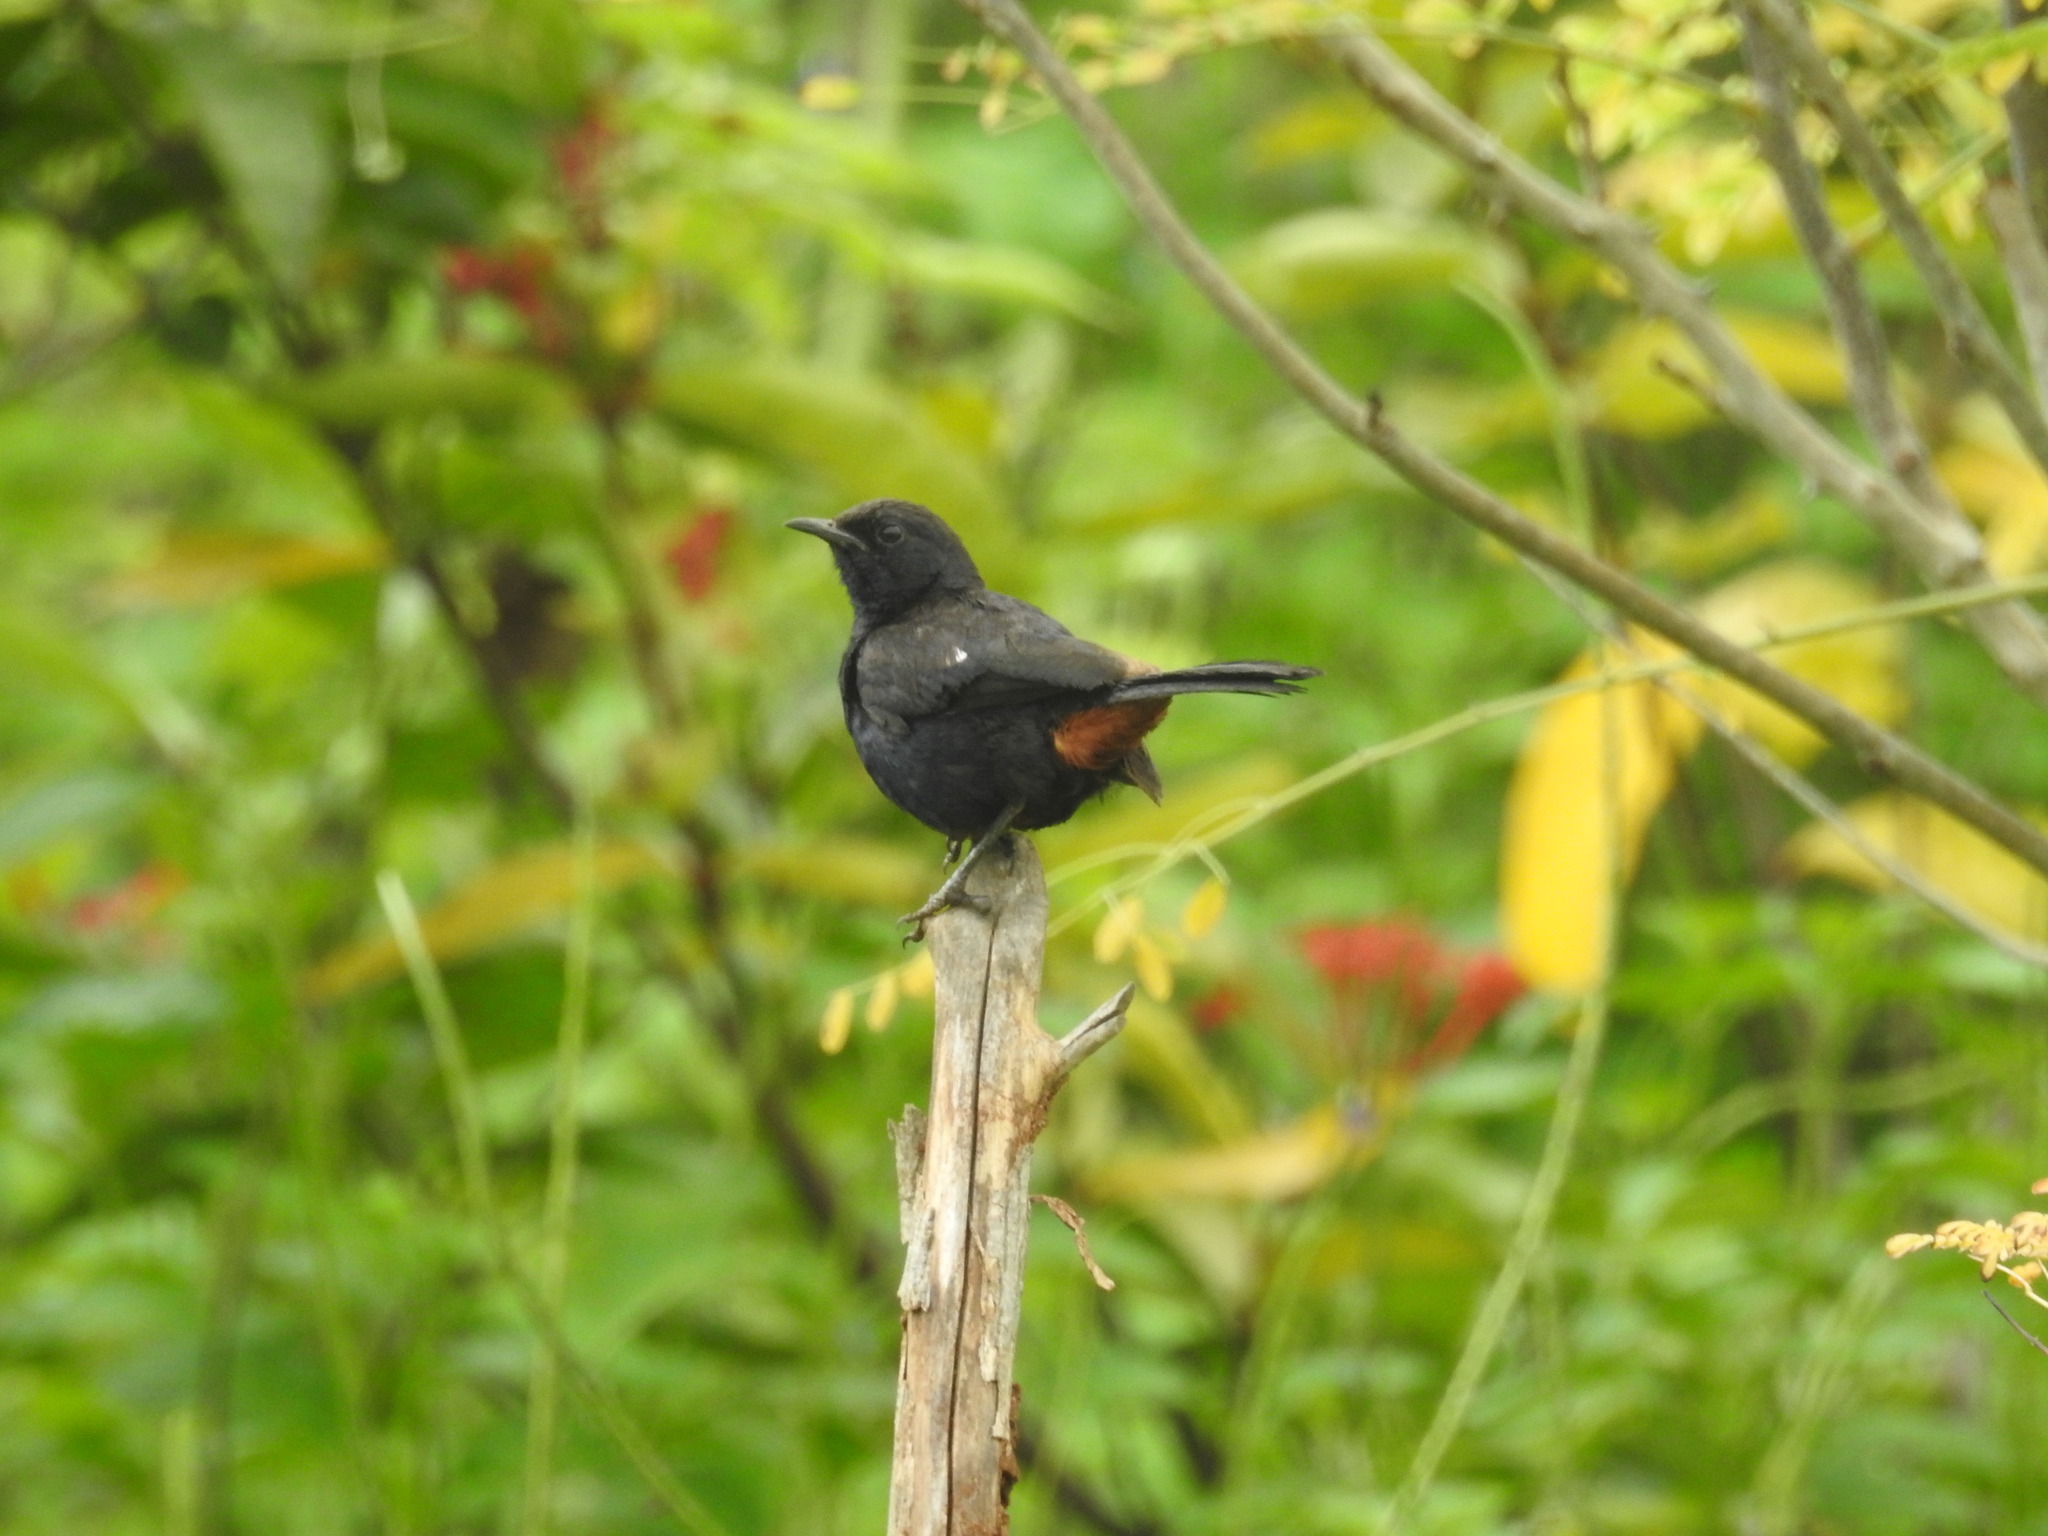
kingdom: Animalia
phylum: Chordata
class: Aves
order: Passeriformes
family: Muscicapidae
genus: Saxicoloides
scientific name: Saxicoloides fulicatus
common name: Indian robin
